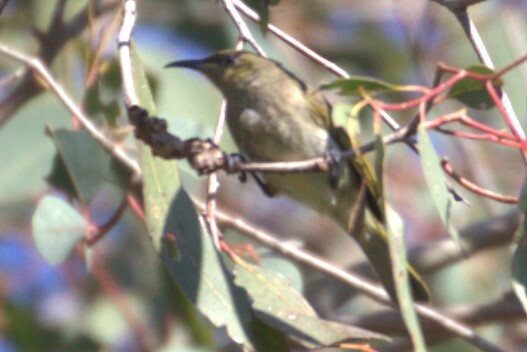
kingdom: Animalia
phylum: Chordata
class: Aves
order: Passeriformes
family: Meliphagidae
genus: Lichmera
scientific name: Lichmera indistincta
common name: Brown honeyeater
